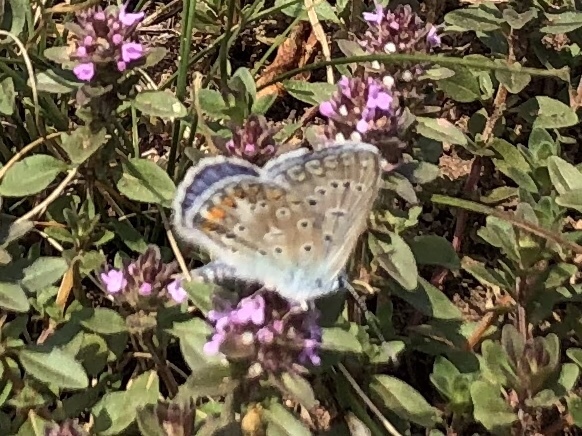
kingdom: Animalia
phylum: Arthropoda
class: Insecta
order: Lepidoptera
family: Lycaenidae
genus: Polyommatus
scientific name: Polyommatus icarus
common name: Common blue
